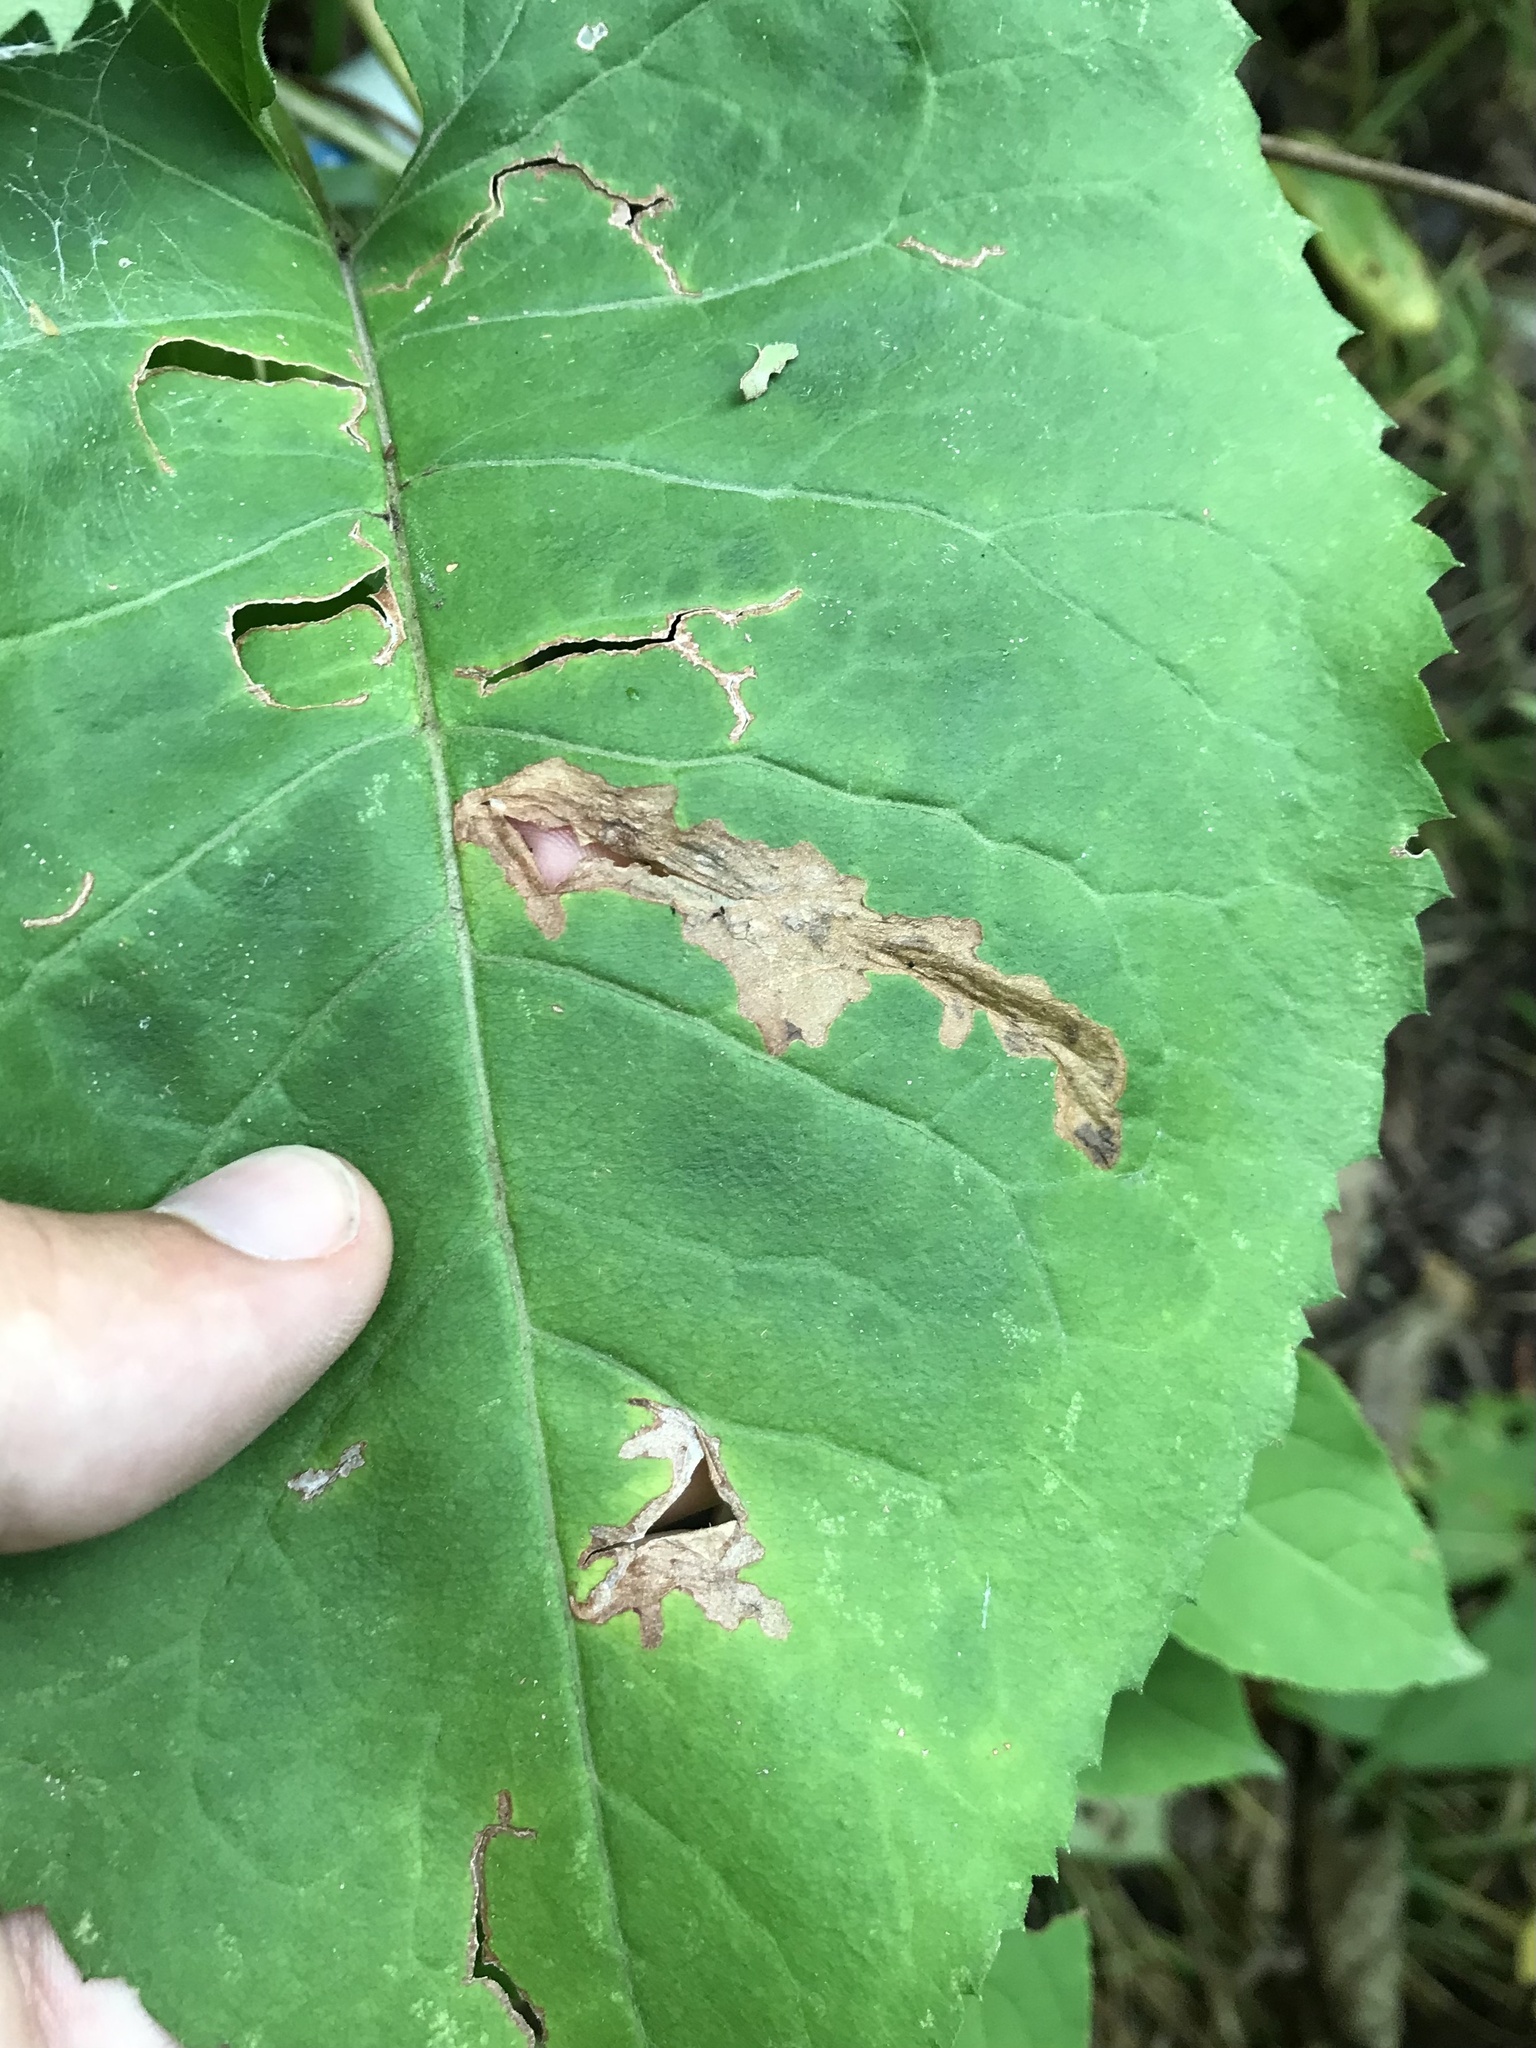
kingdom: Animalia
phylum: Arthropoda
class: Insecta
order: Lepidoptera
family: Gelechiidae
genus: Scrobipalpula
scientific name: Scrobipalpula manierreorum
